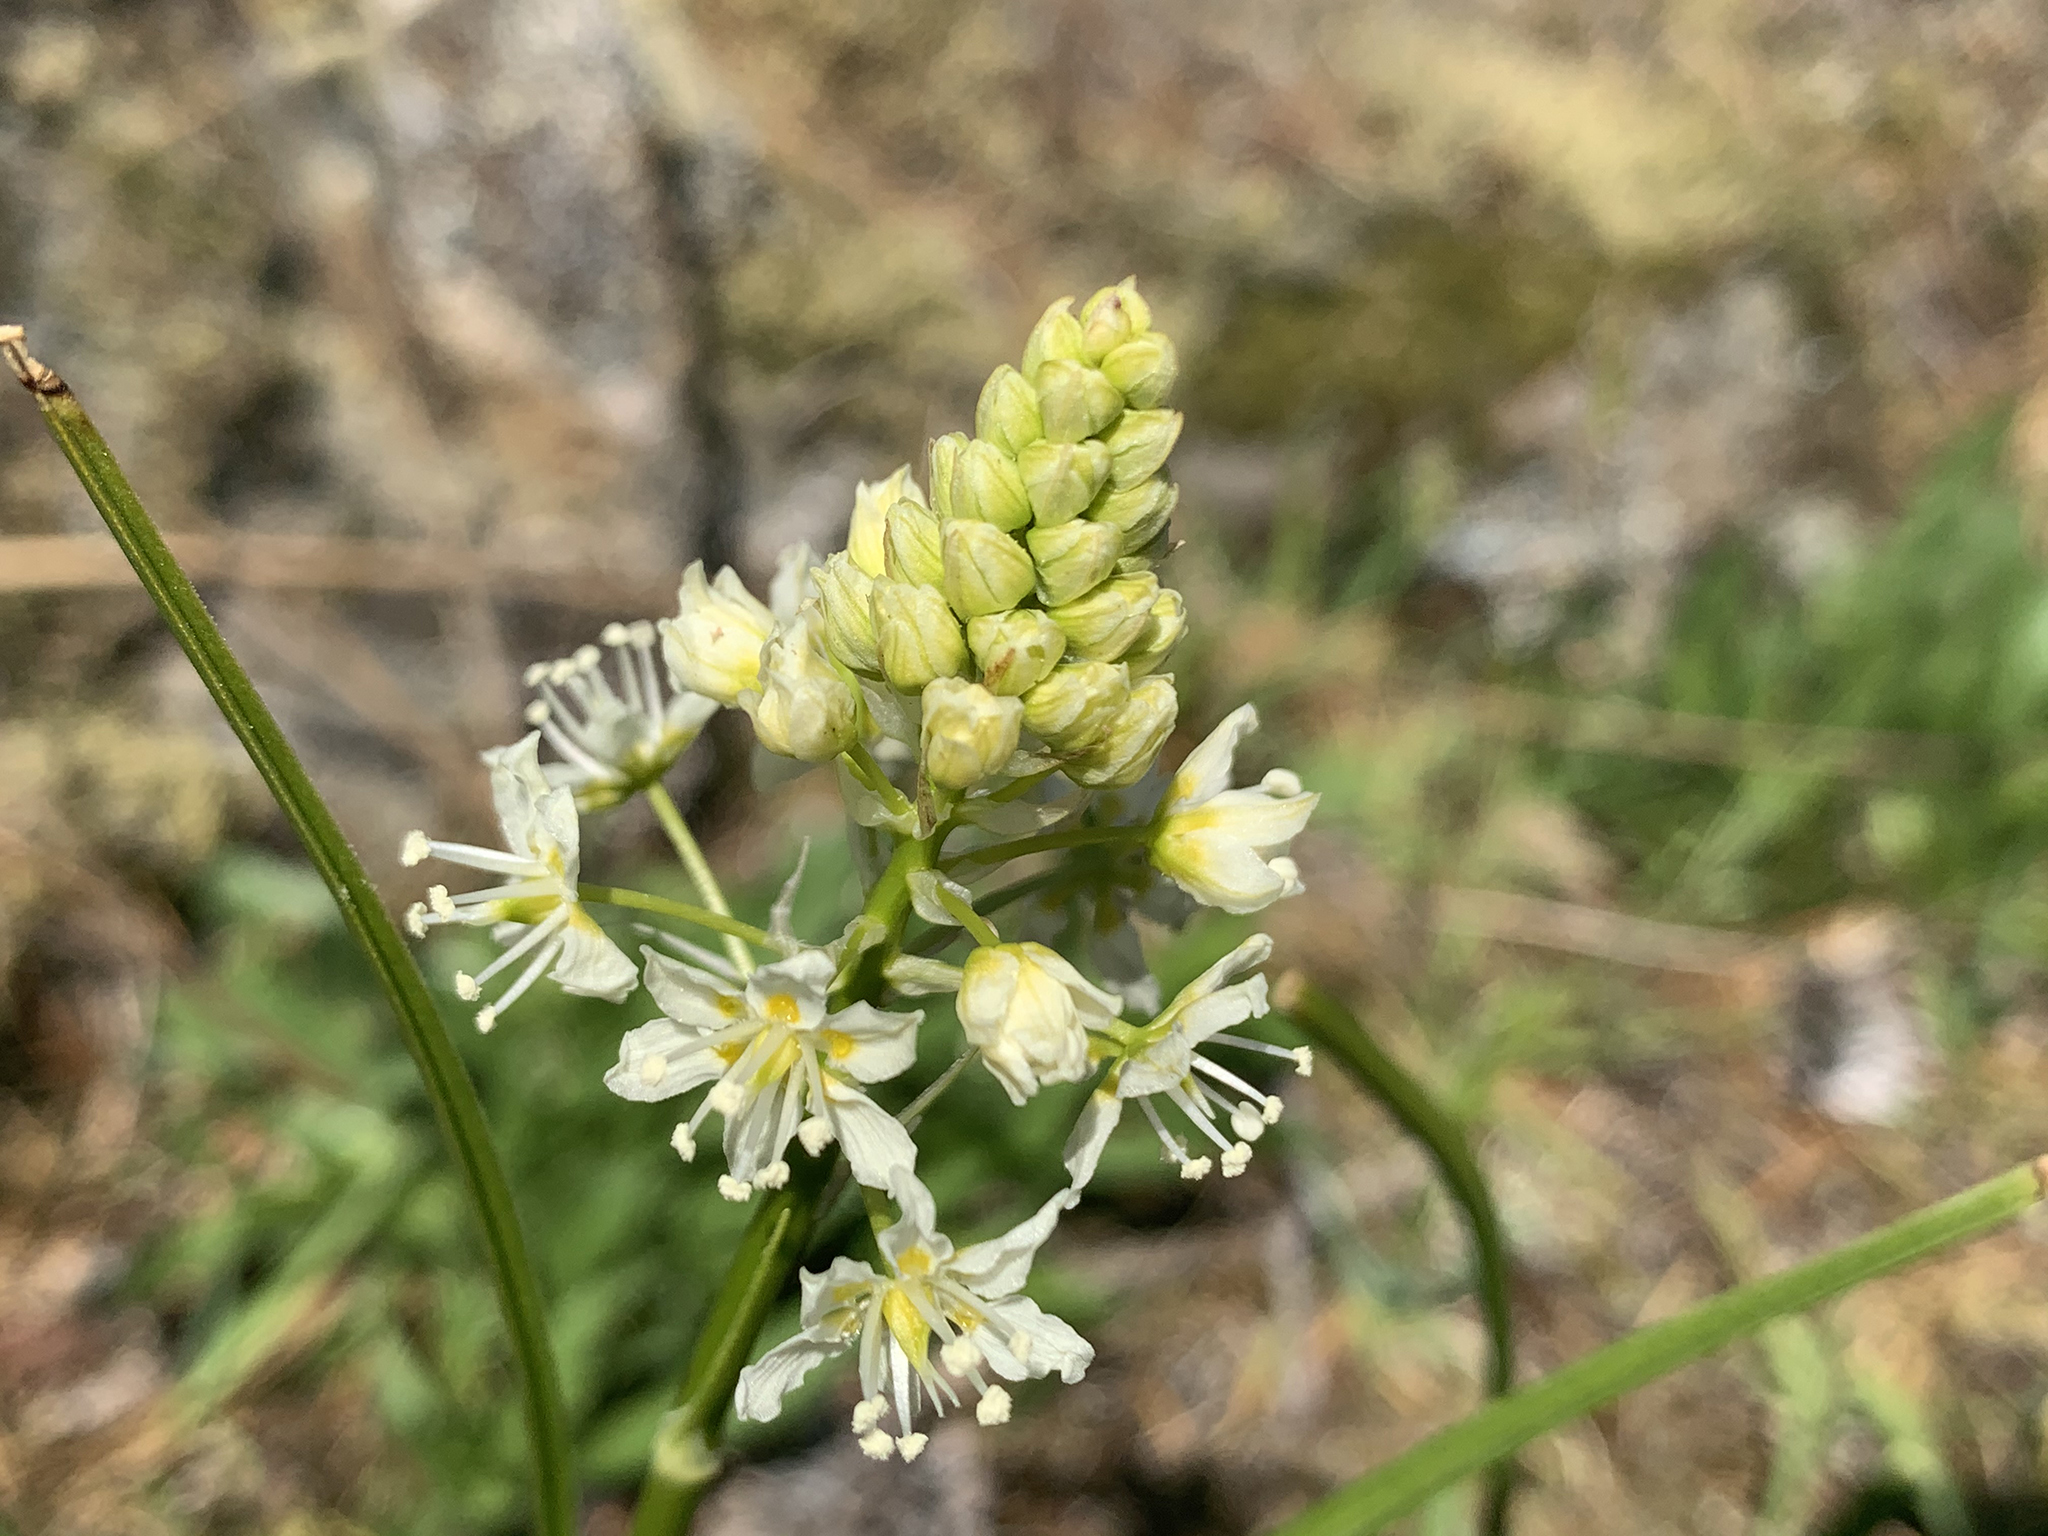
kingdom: Plantae
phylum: Tracheophyta
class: Liliopsida
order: Liliales
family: Melanthiaceae
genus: Toxicoscordion
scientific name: Toxicoscordion venenosum
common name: Meadow death camas
